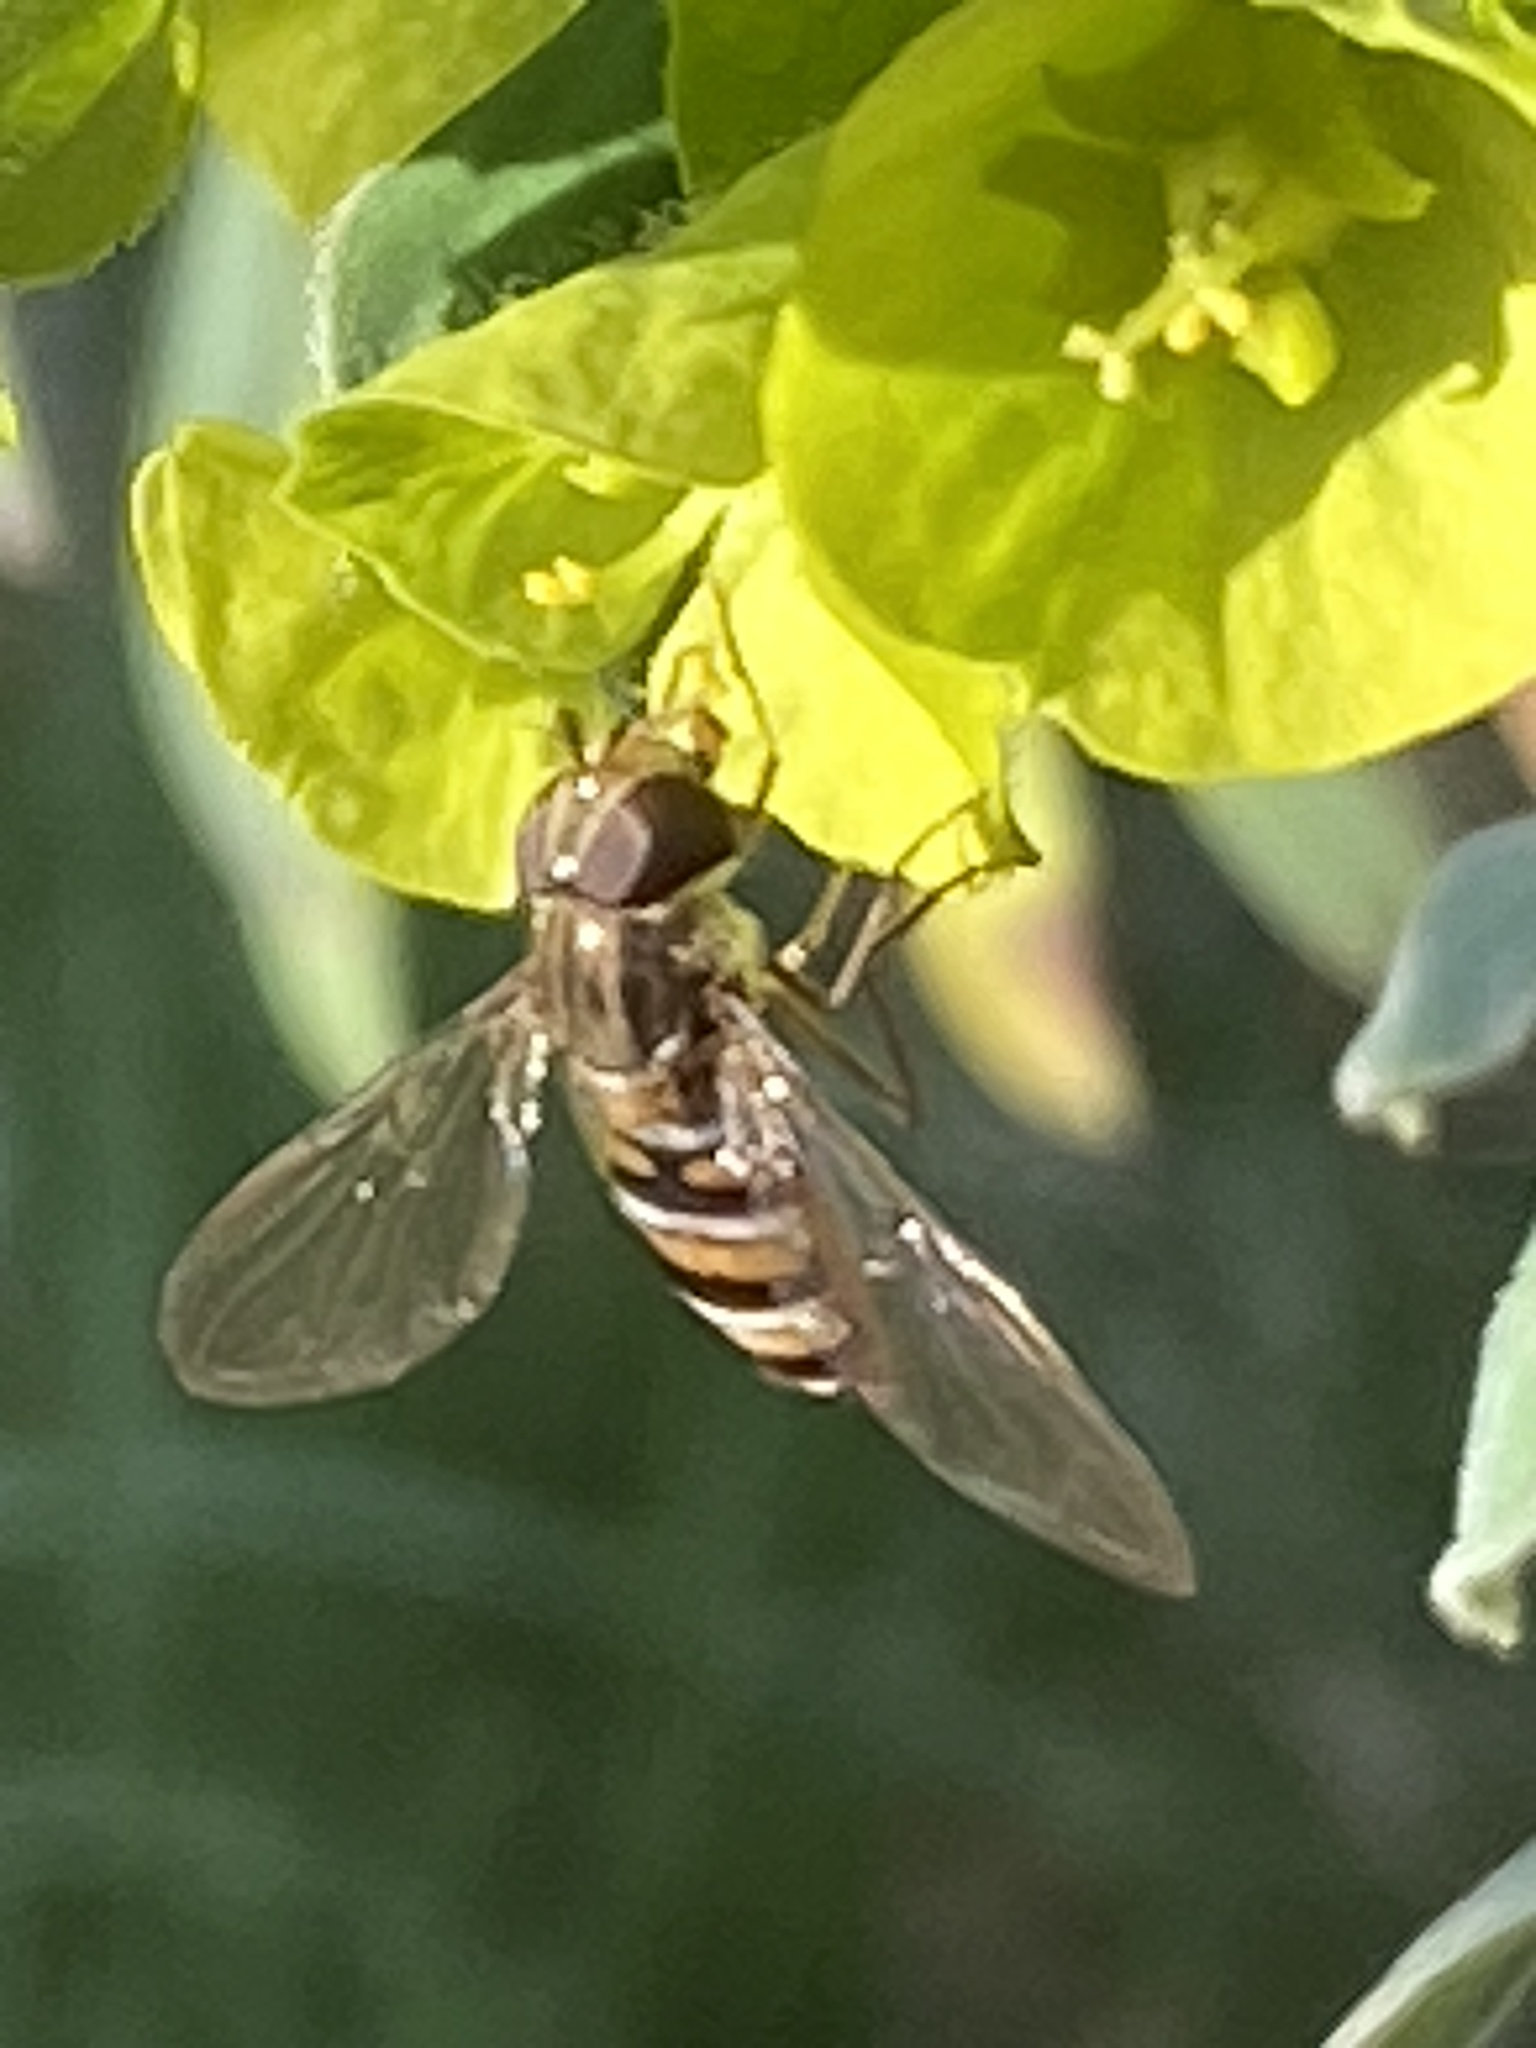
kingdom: Animalia
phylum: Arthropoda
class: Insecta
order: Diptera
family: Syrphidae
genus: Episyrphus
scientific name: Episyrphus balteatus
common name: Marmalade hoverfly
